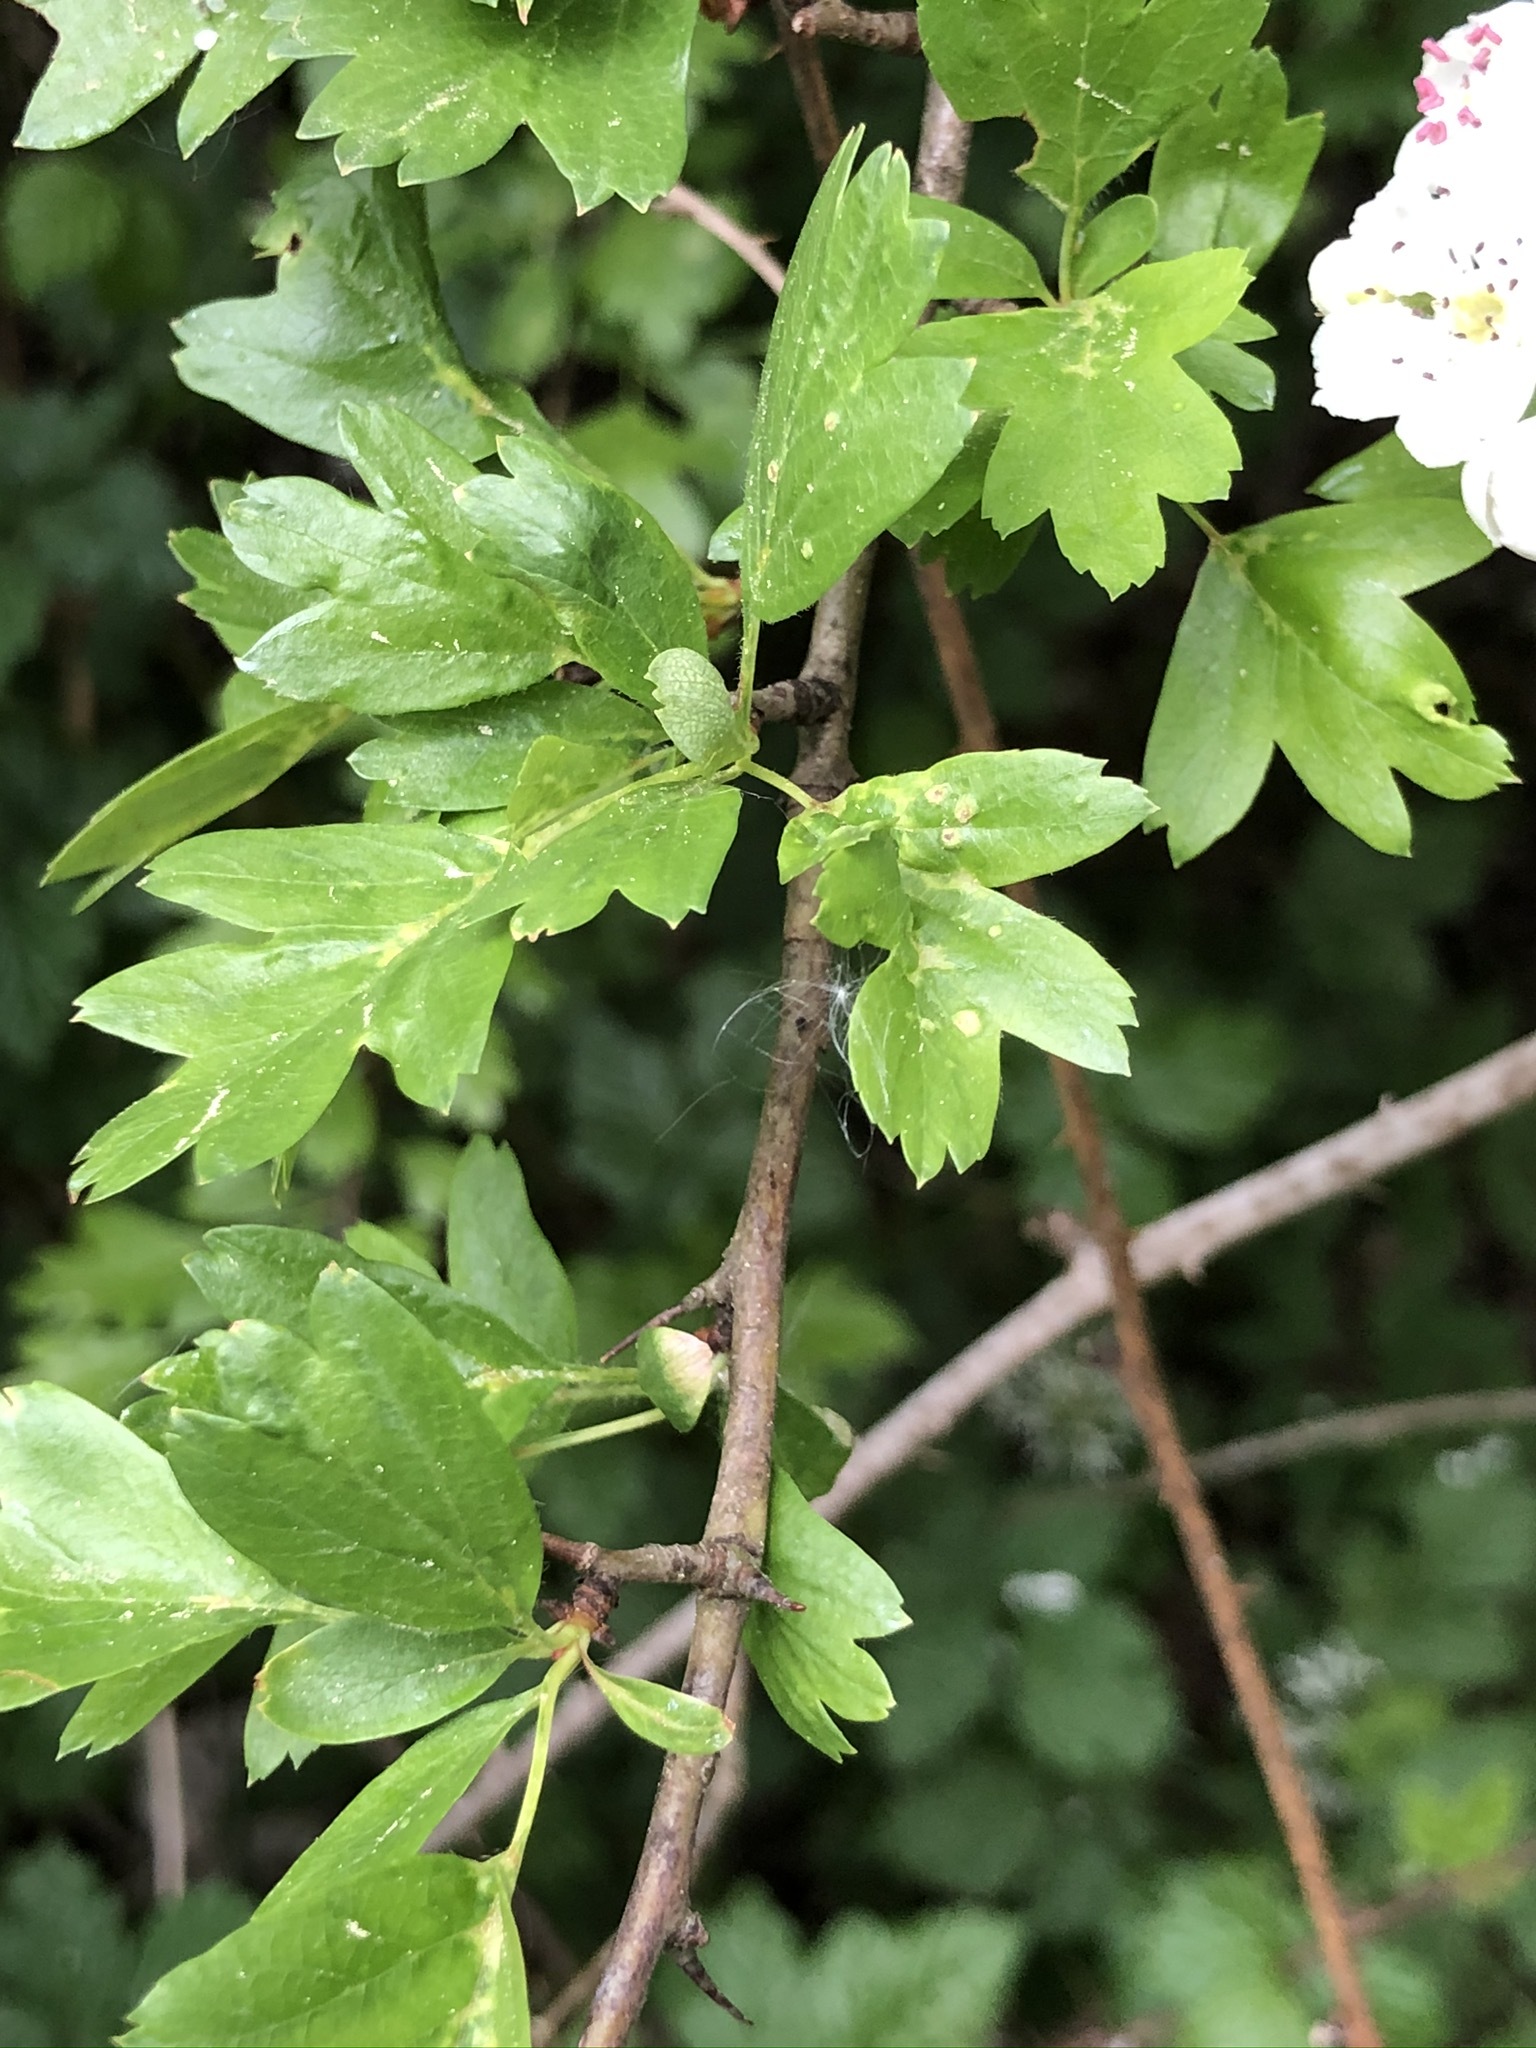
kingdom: Plantae
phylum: Tracheophyta
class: Magnoliopsida
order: Rosales
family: Rosaceae
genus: Crataegus
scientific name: Crataegus monogyna
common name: Hawthorn
